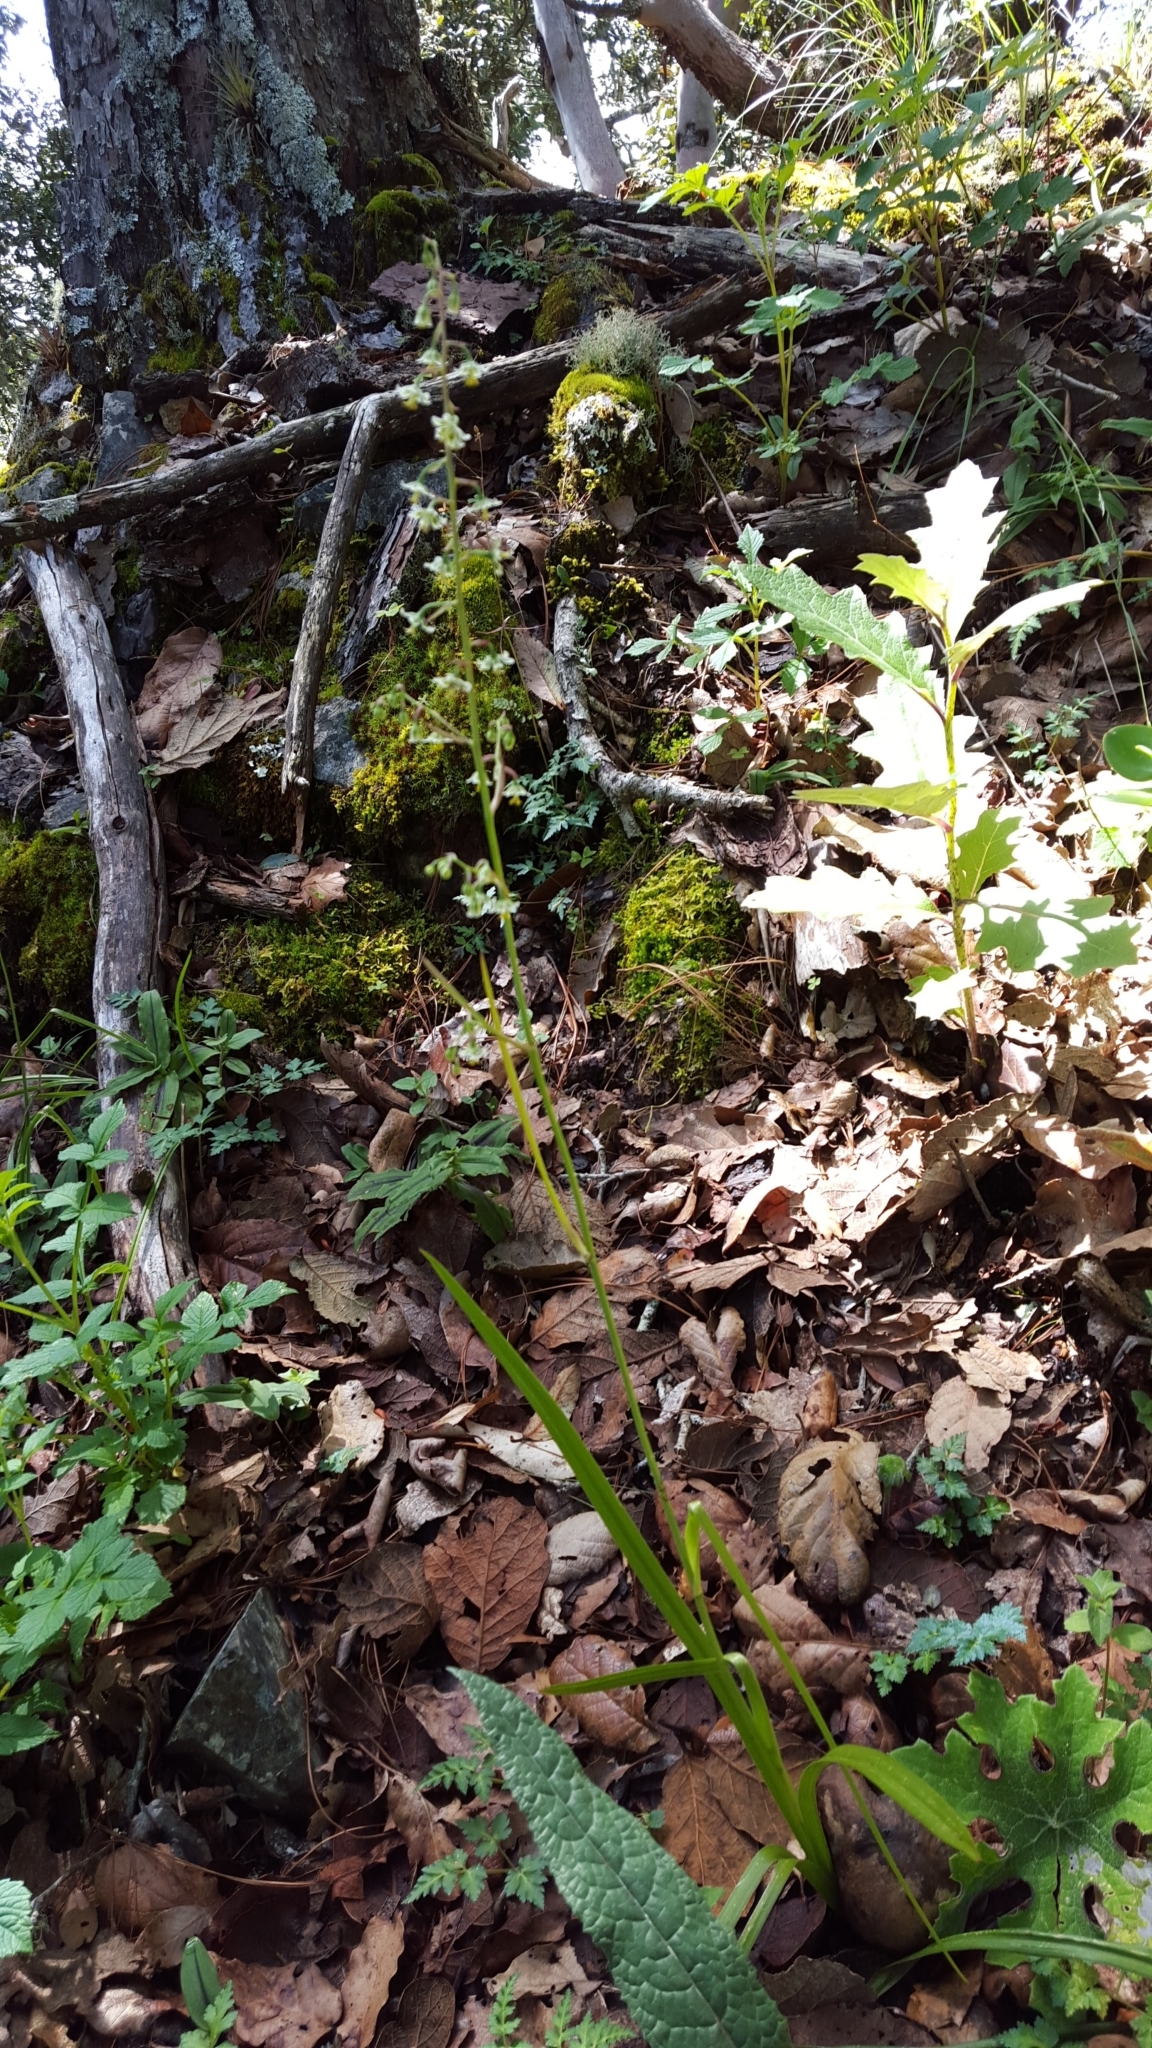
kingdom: Plantae
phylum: Tracheophyta
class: Liliopsida
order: Liliales
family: Melanthiaceae
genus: Anticlea
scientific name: Anticlea hintoniorum
